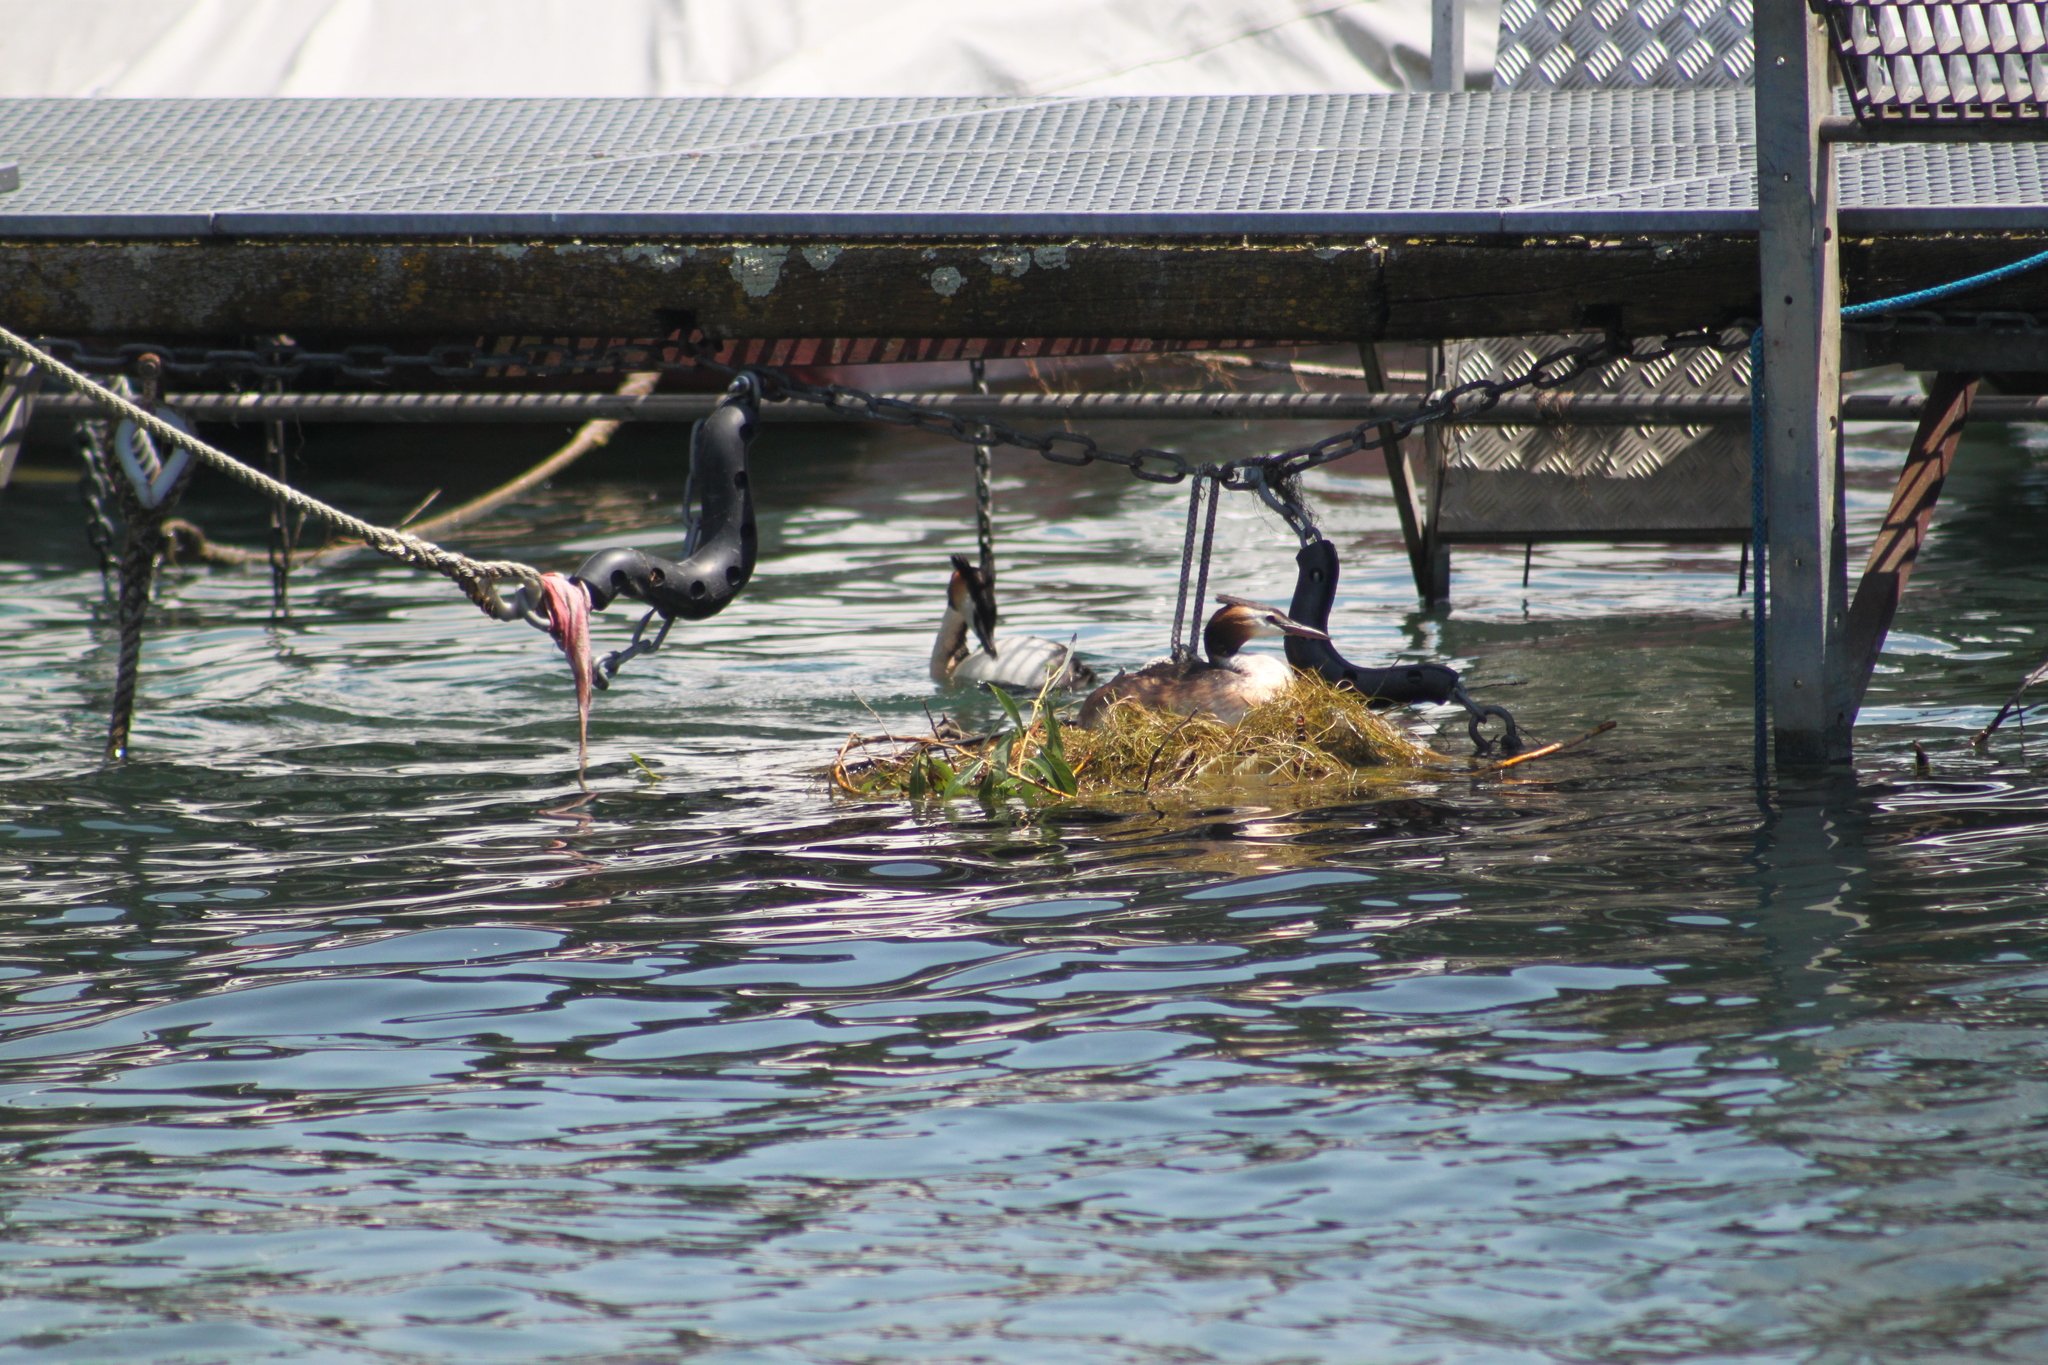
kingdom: Animalia
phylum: Chordata
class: Aves
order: Podicipediformes
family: Podicipedidae
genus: Podiceps
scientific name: Podiceps cristatus
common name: Great crested grebe
